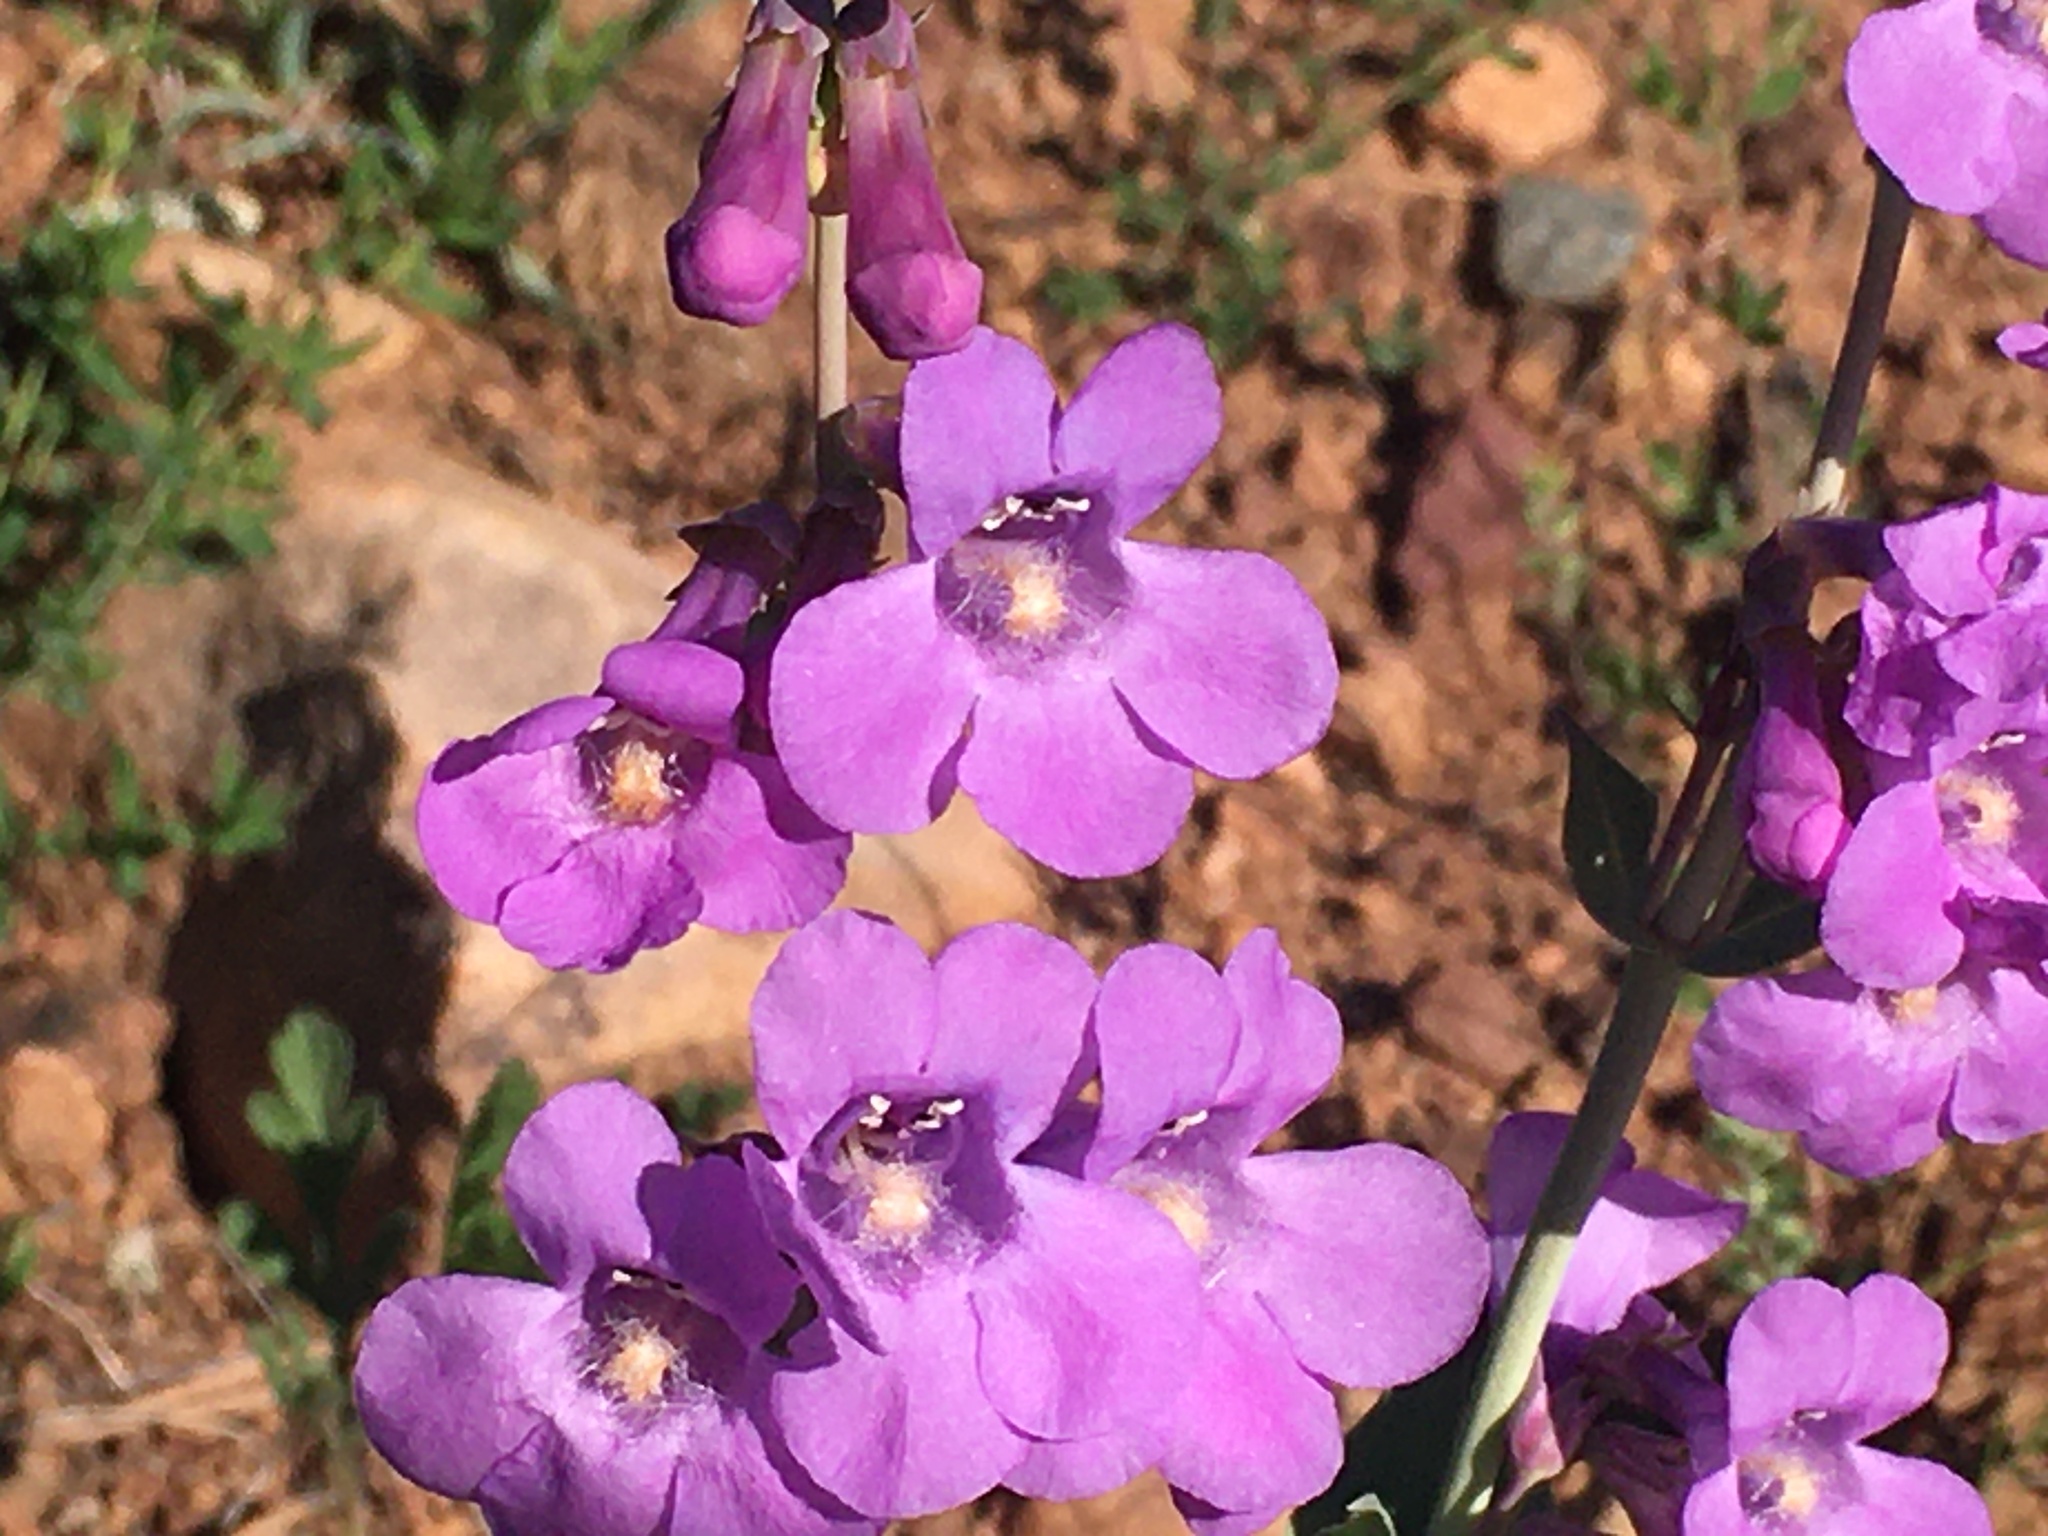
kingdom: Plantae
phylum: Tracheophyta
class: Magnoliopsida
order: Lamiales
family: Plantaginaceae
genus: Penstemon
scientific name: Penstemon secundiflorus
